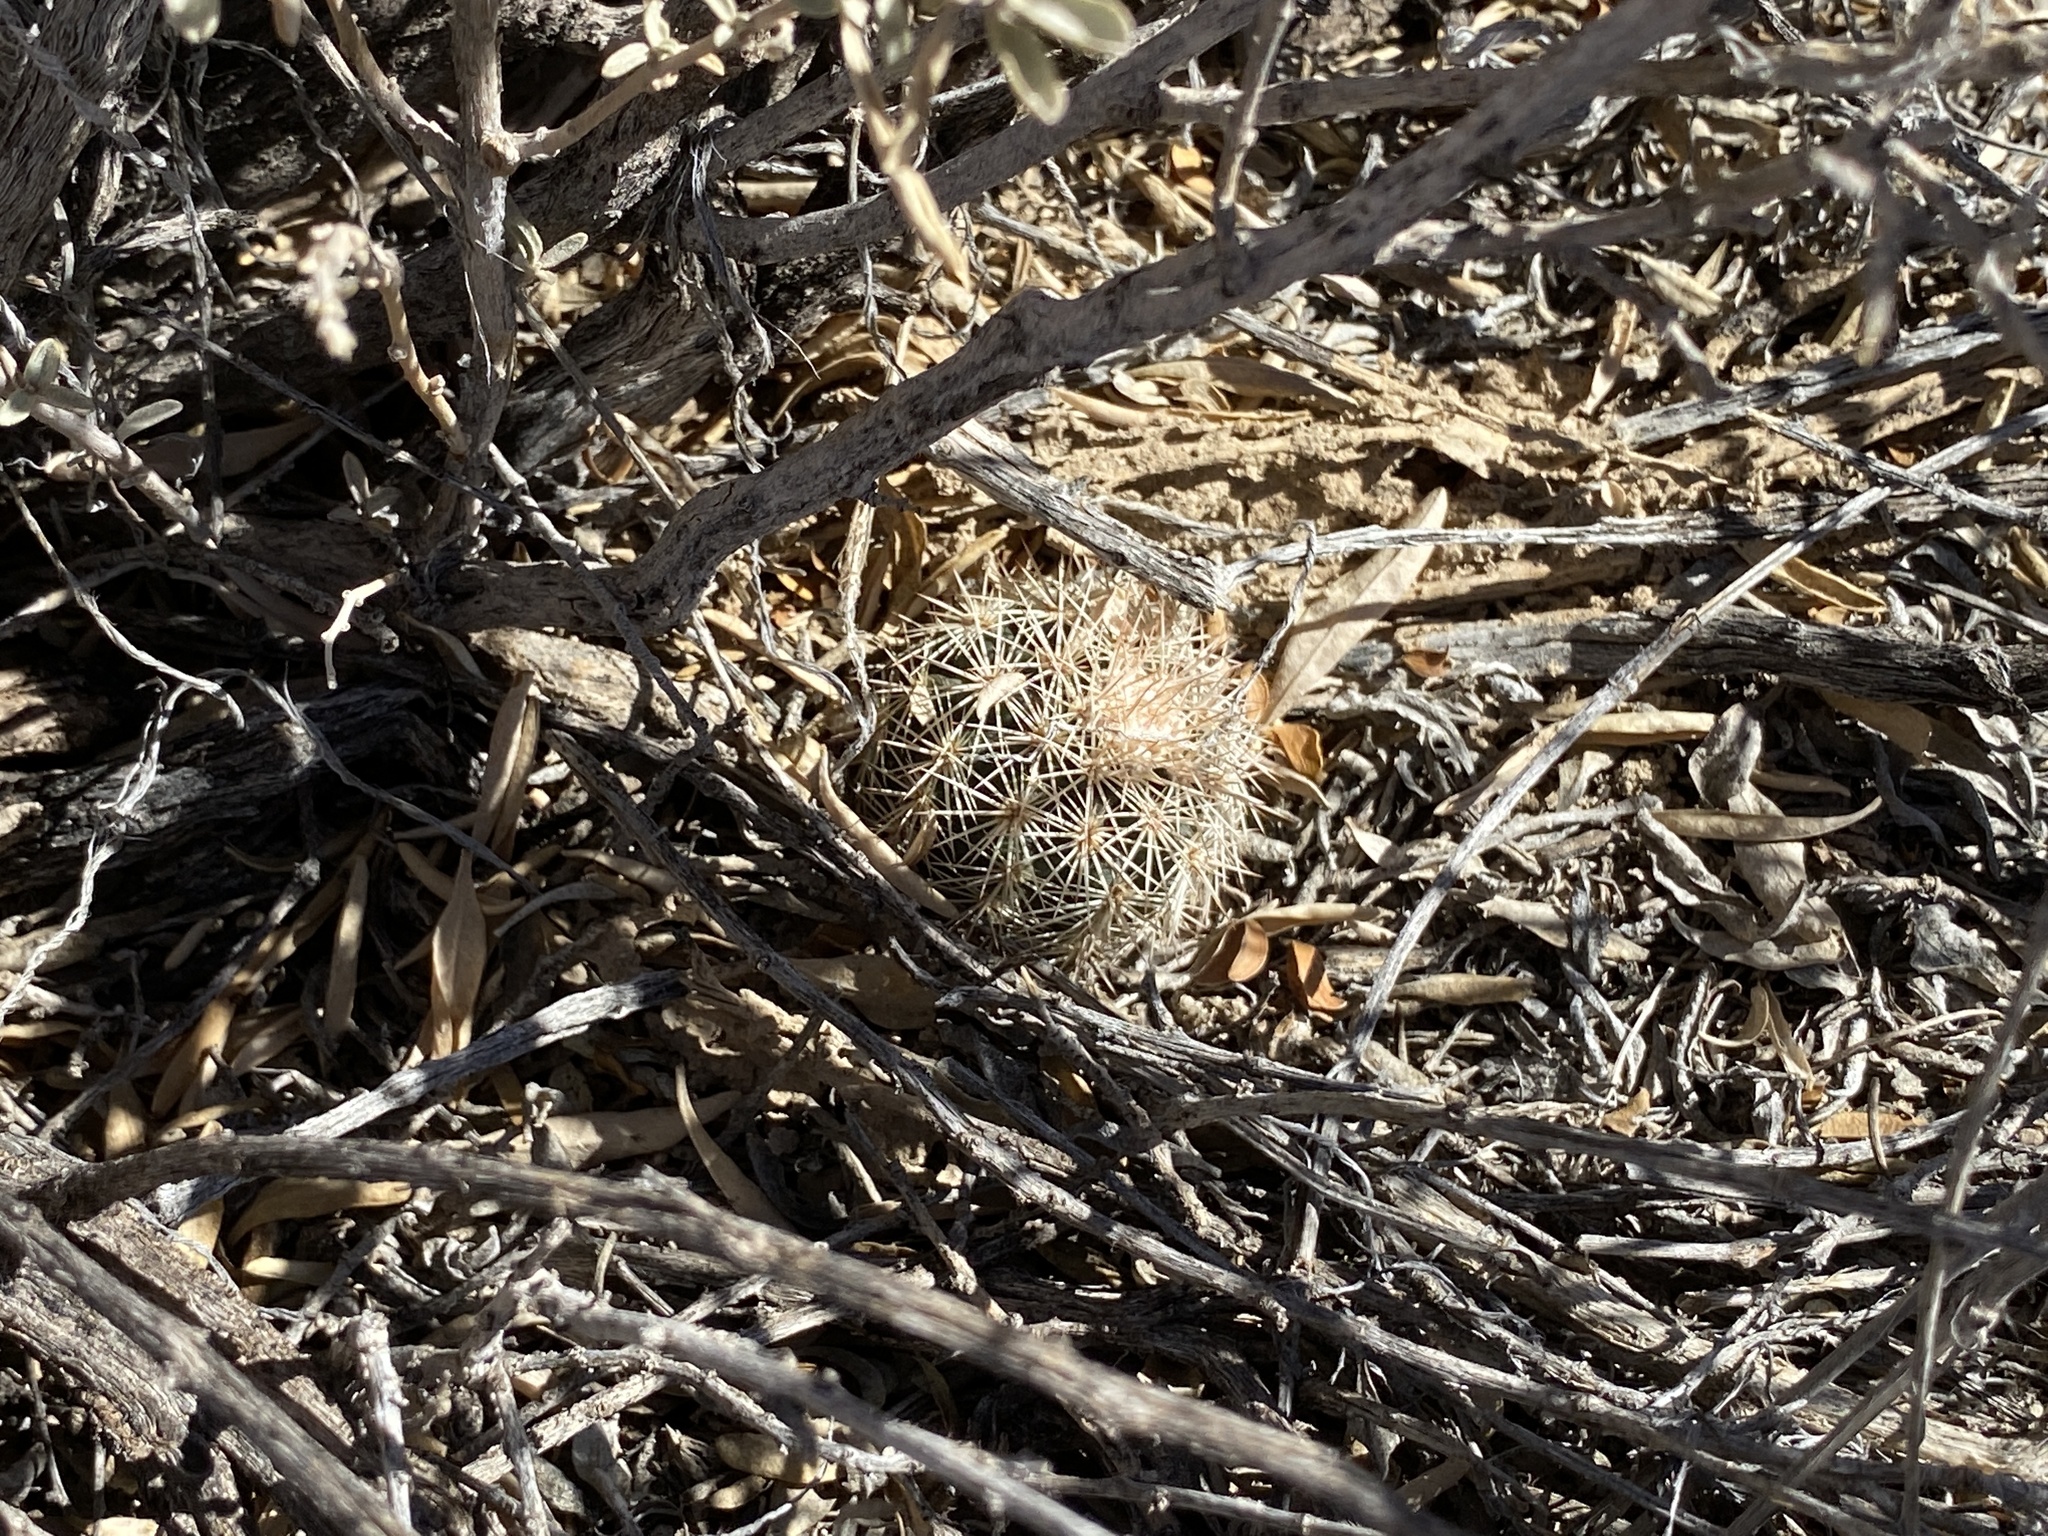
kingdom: Plantae
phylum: Tracheophyta
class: Magnoliopsida
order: Caryophyllales
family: Cactaceae
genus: Echinocereus
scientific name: Echinocereus dasyacanthus
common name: Spiny hedgehog cactus
